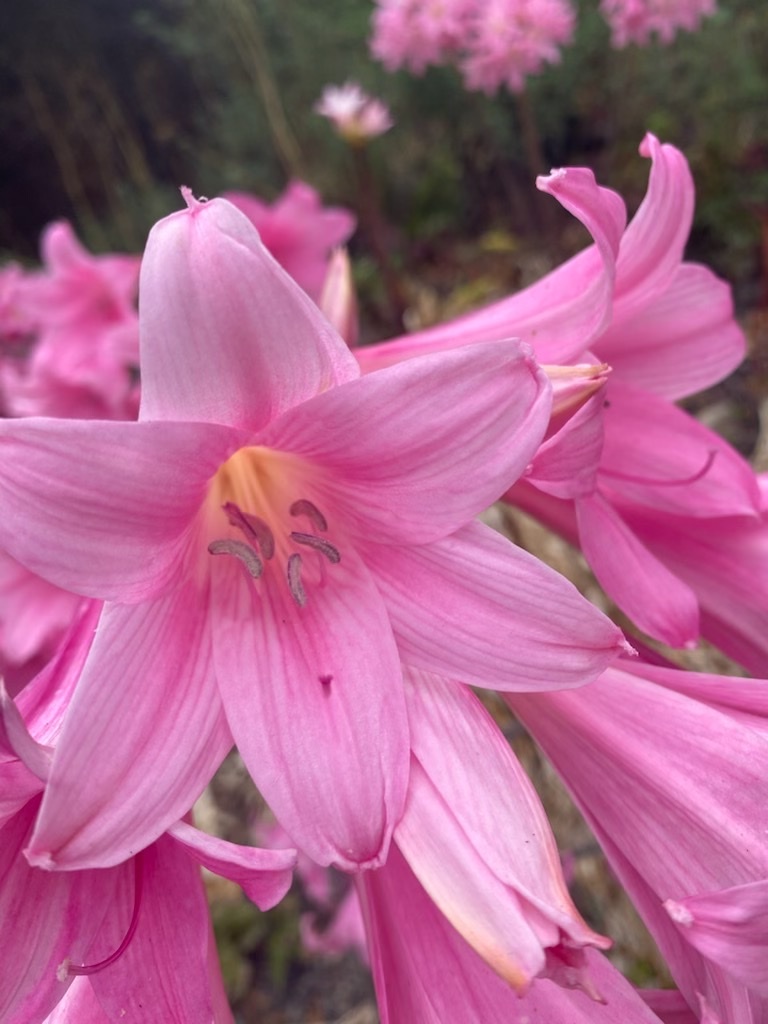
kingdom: Plantae
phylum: Tracheophyta
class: Liliopsida
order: Asparagales
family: Amaryllidaceae
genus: Amaryllis
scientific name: Amaryllis belladonna
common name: Jersey lily
